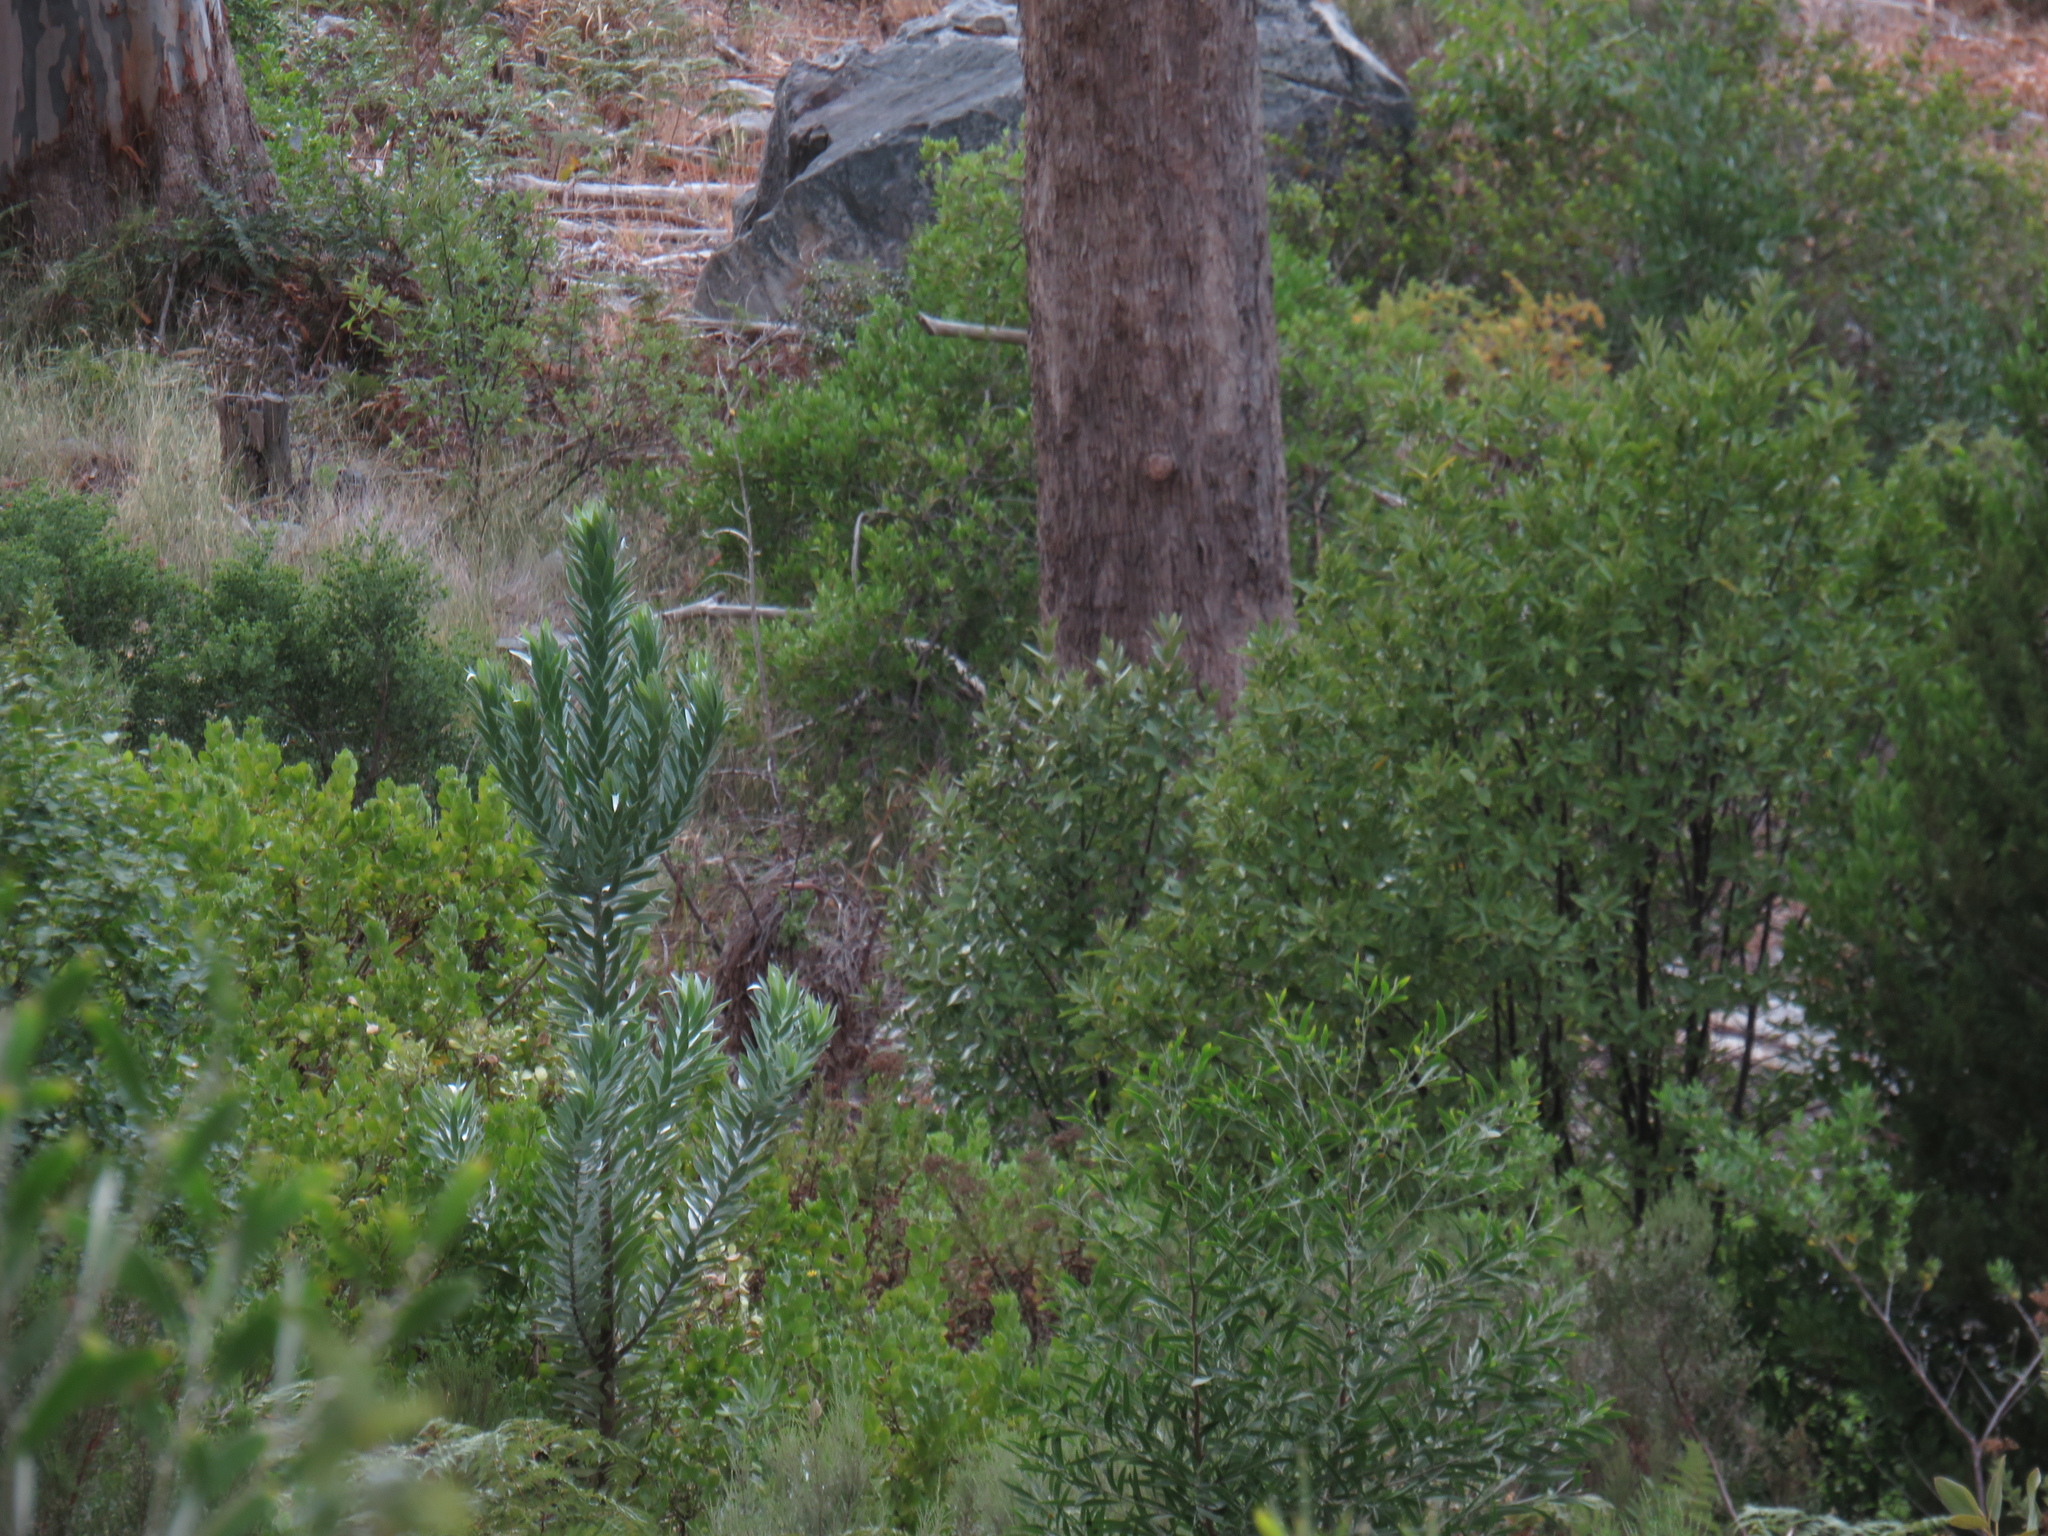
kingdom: Plantae
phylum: Tracheophyta
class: Magnoliopsida
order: Proteales
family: Proteaceae
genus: Leucadendron
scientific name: Leucadendron argenteum
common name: Cape silver tree
